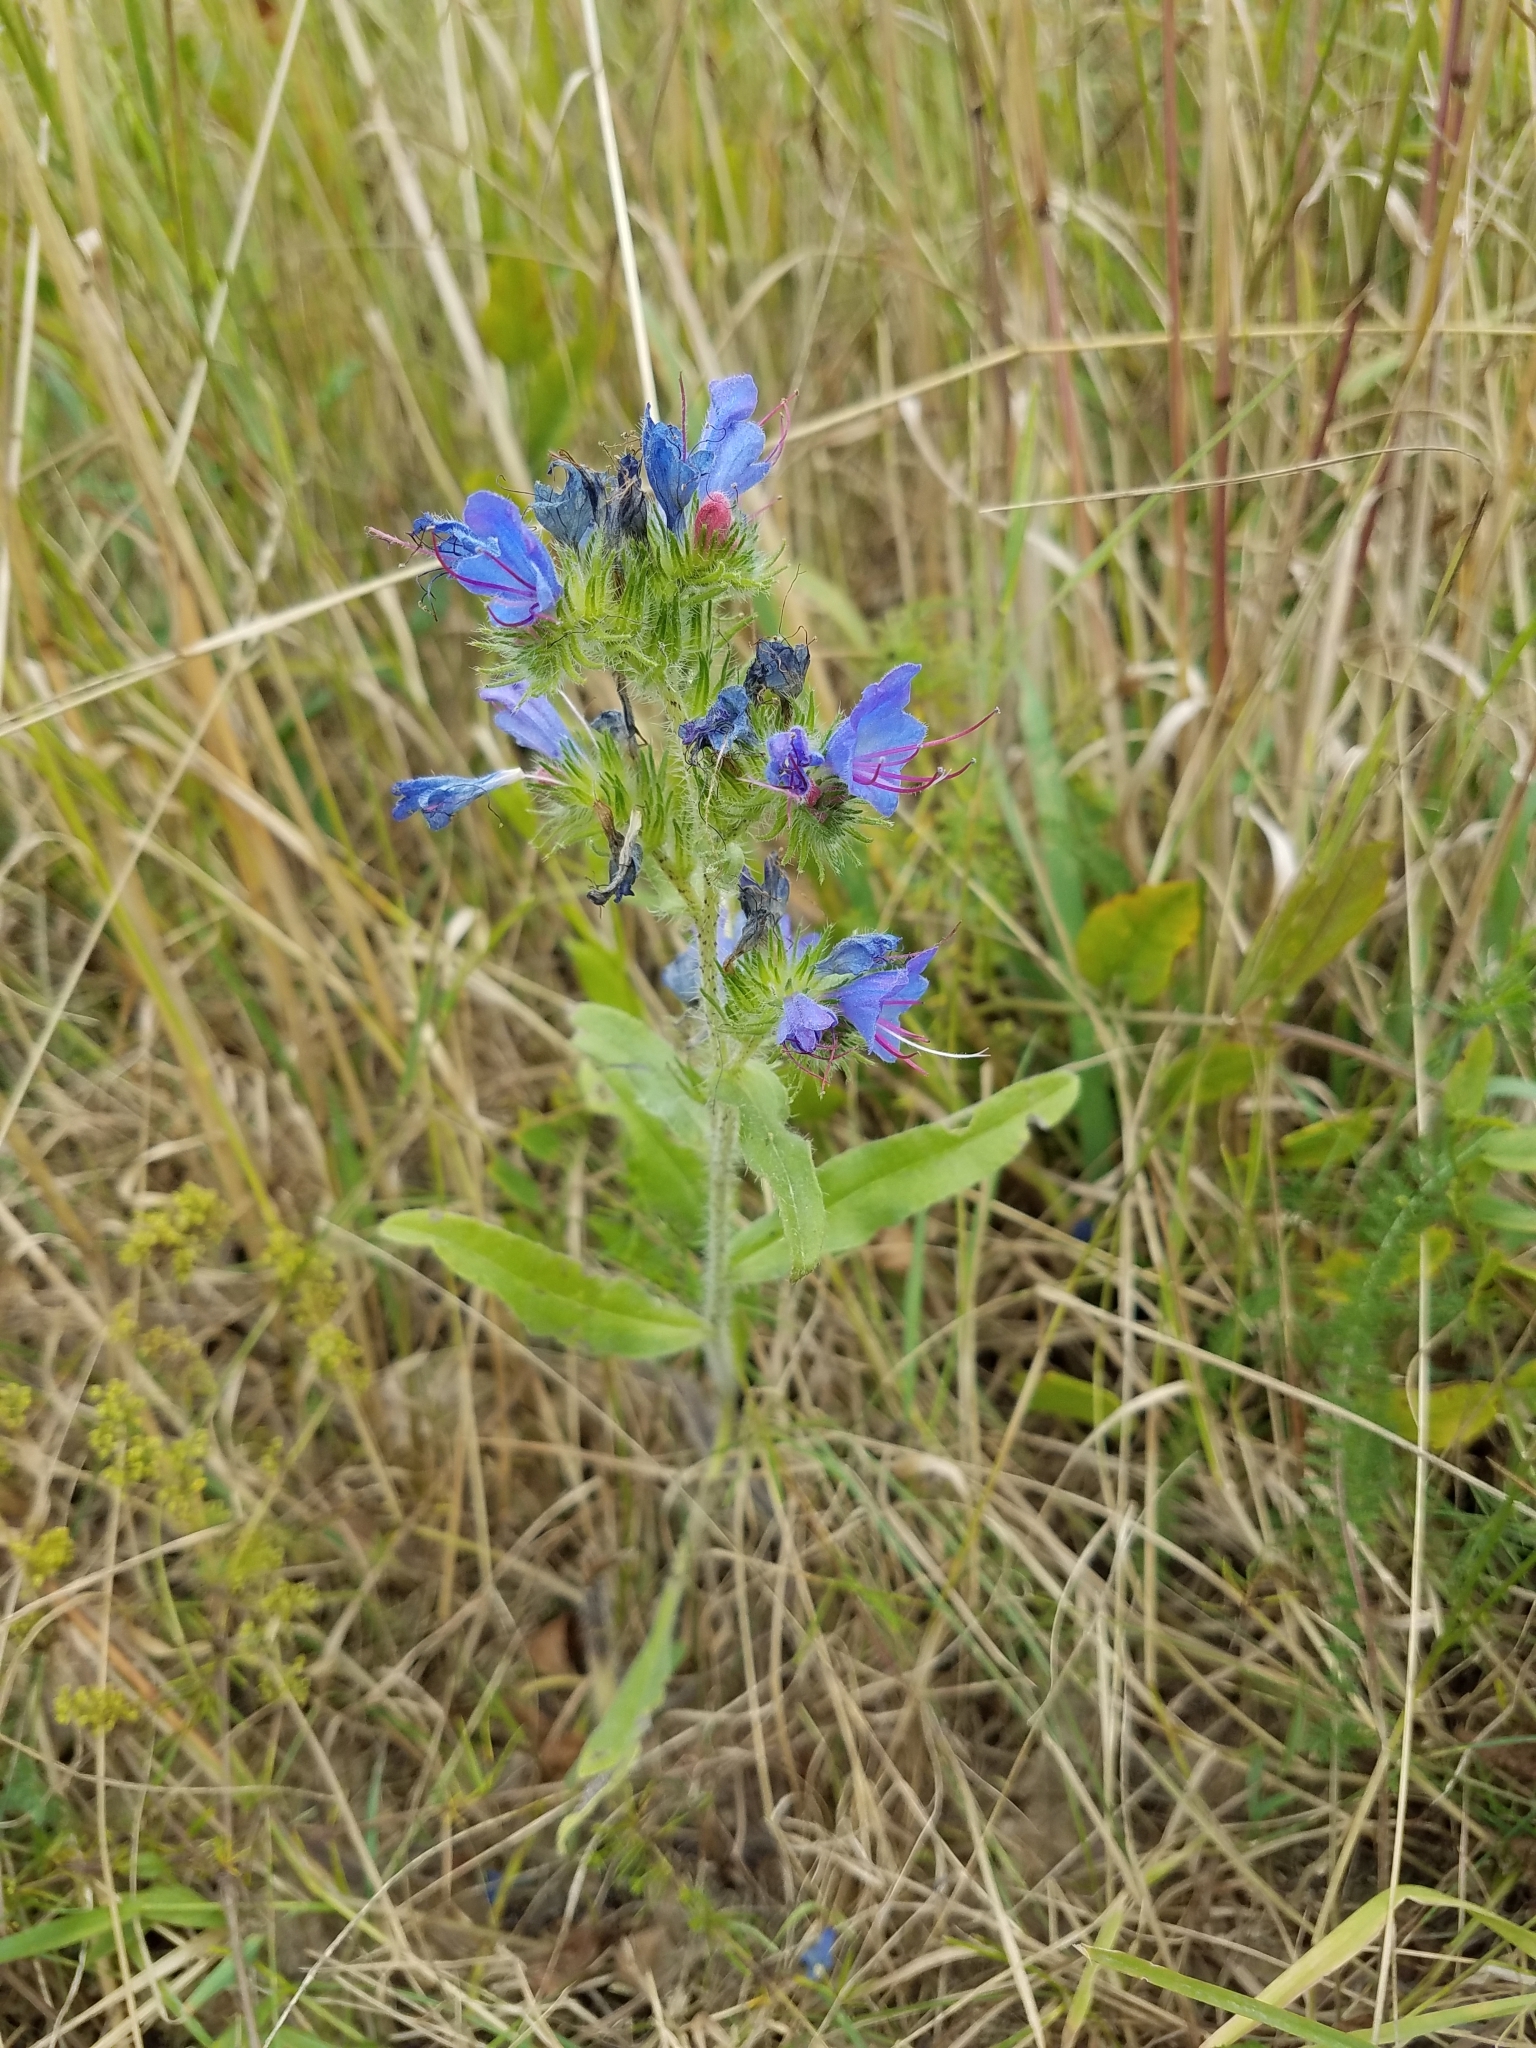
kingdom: Plantae
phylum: Tracheophyta
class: Magnoliopsida
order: Boraginales
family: Boraginaceae
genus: Echium
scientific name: Echium vulgare
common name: Common viper's bugloss
